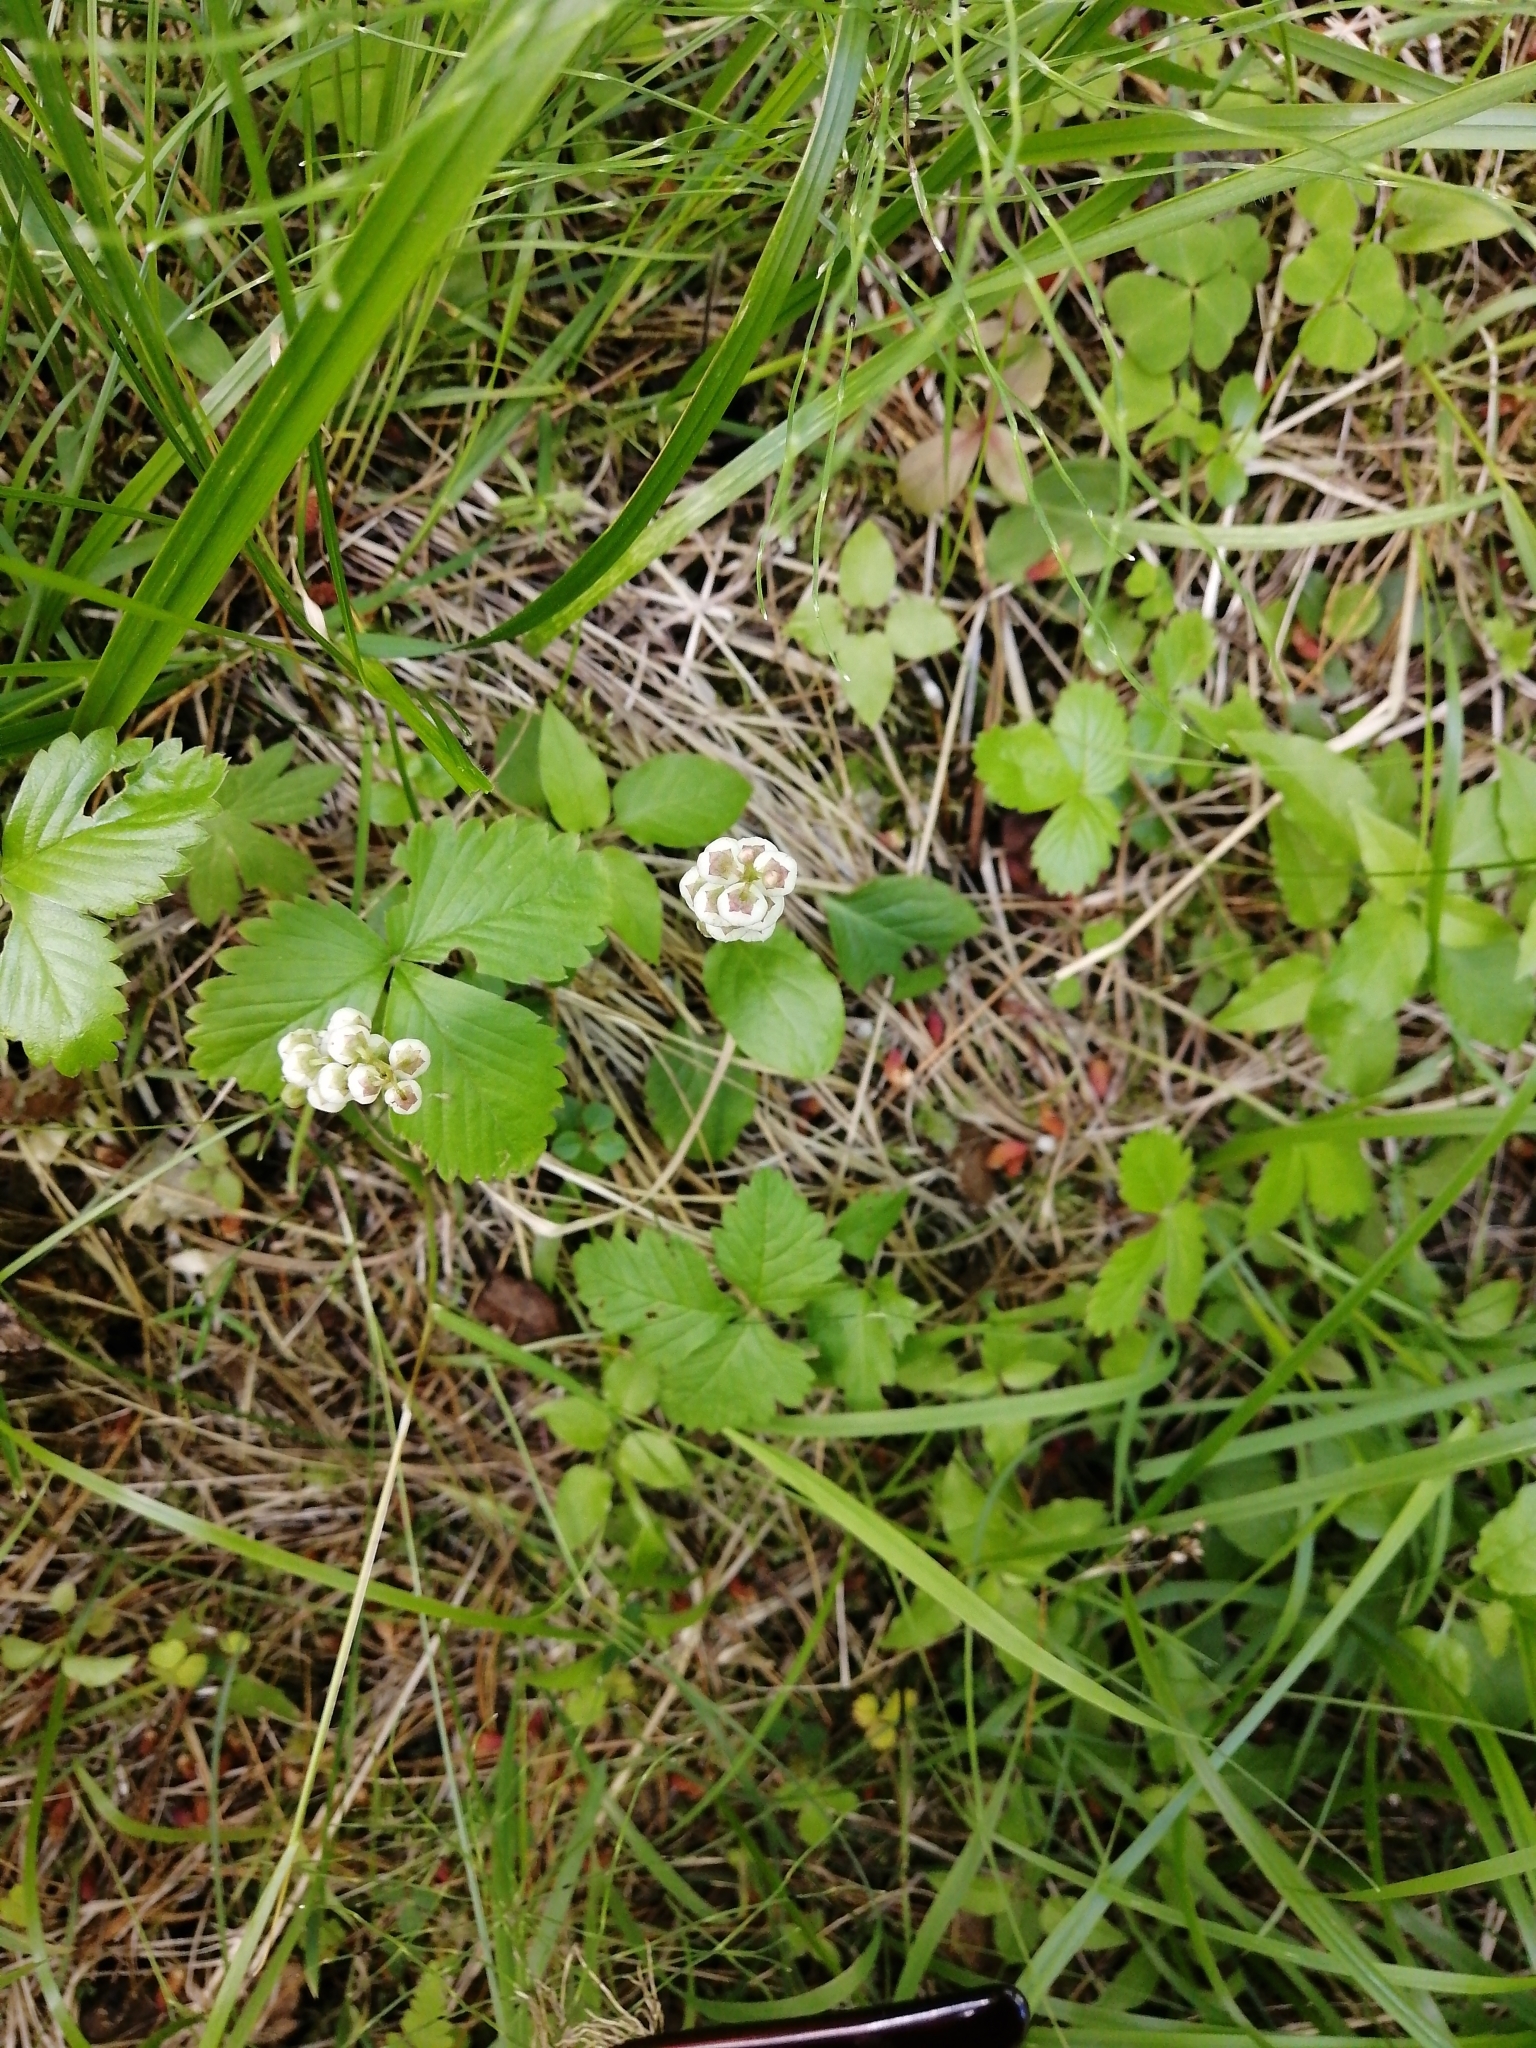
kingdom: Plantae
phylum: Tracheophyta
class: Magnoliopsida
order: Ericales
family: Ericaceae
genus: Pyrola
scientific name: Pyrola minor
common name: Common wintergreen
